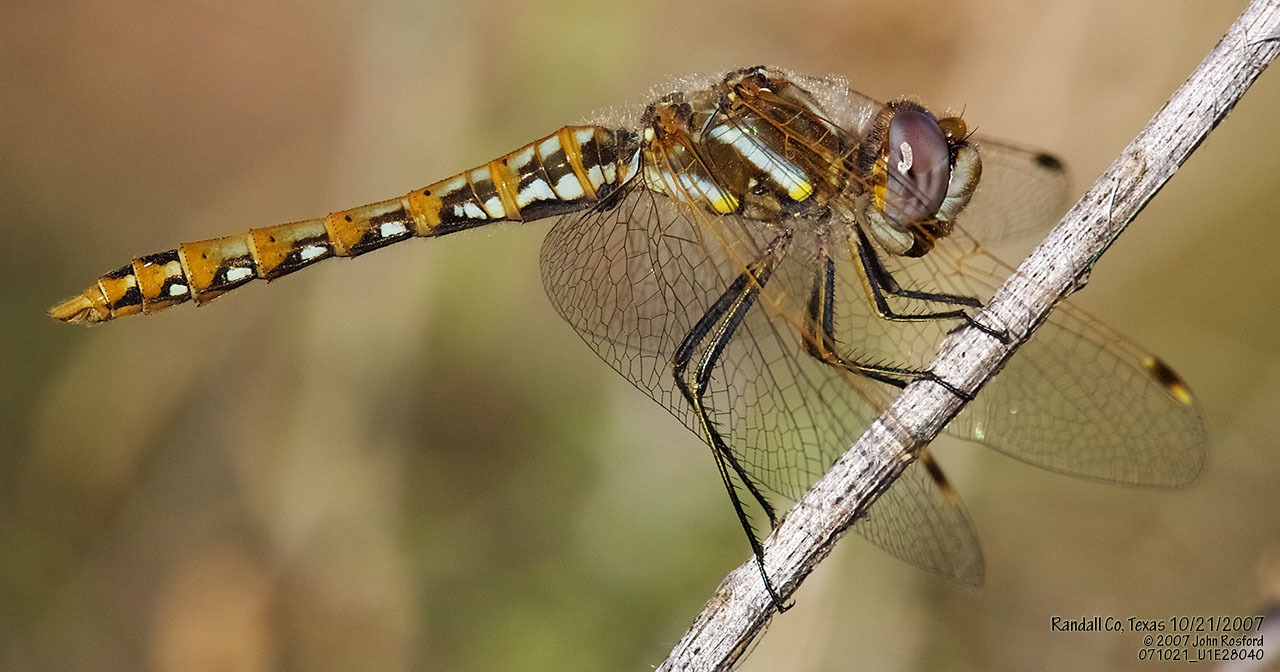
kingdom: Animalia
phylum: Arthropoda
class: Insecta
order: Odonata
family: Libellulidae
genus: Sympetrum
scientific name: Sympetrum corruptum
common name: Variegated meadowhawk
